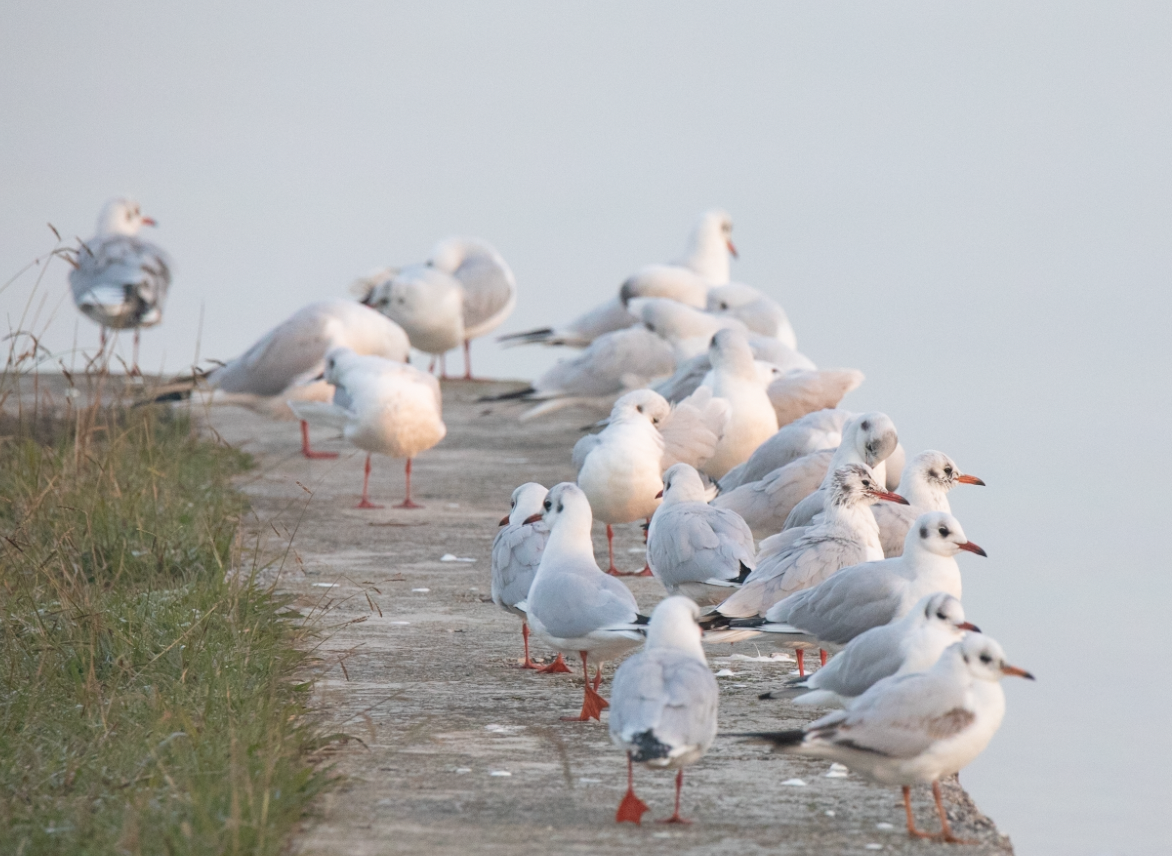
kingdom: Animalia
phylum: Chordata
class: Aves
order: Charadriiformes
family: Laridae
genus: Chroicocephalus
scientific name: Chroicocephalus ridibundus
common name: Black-headed gull
